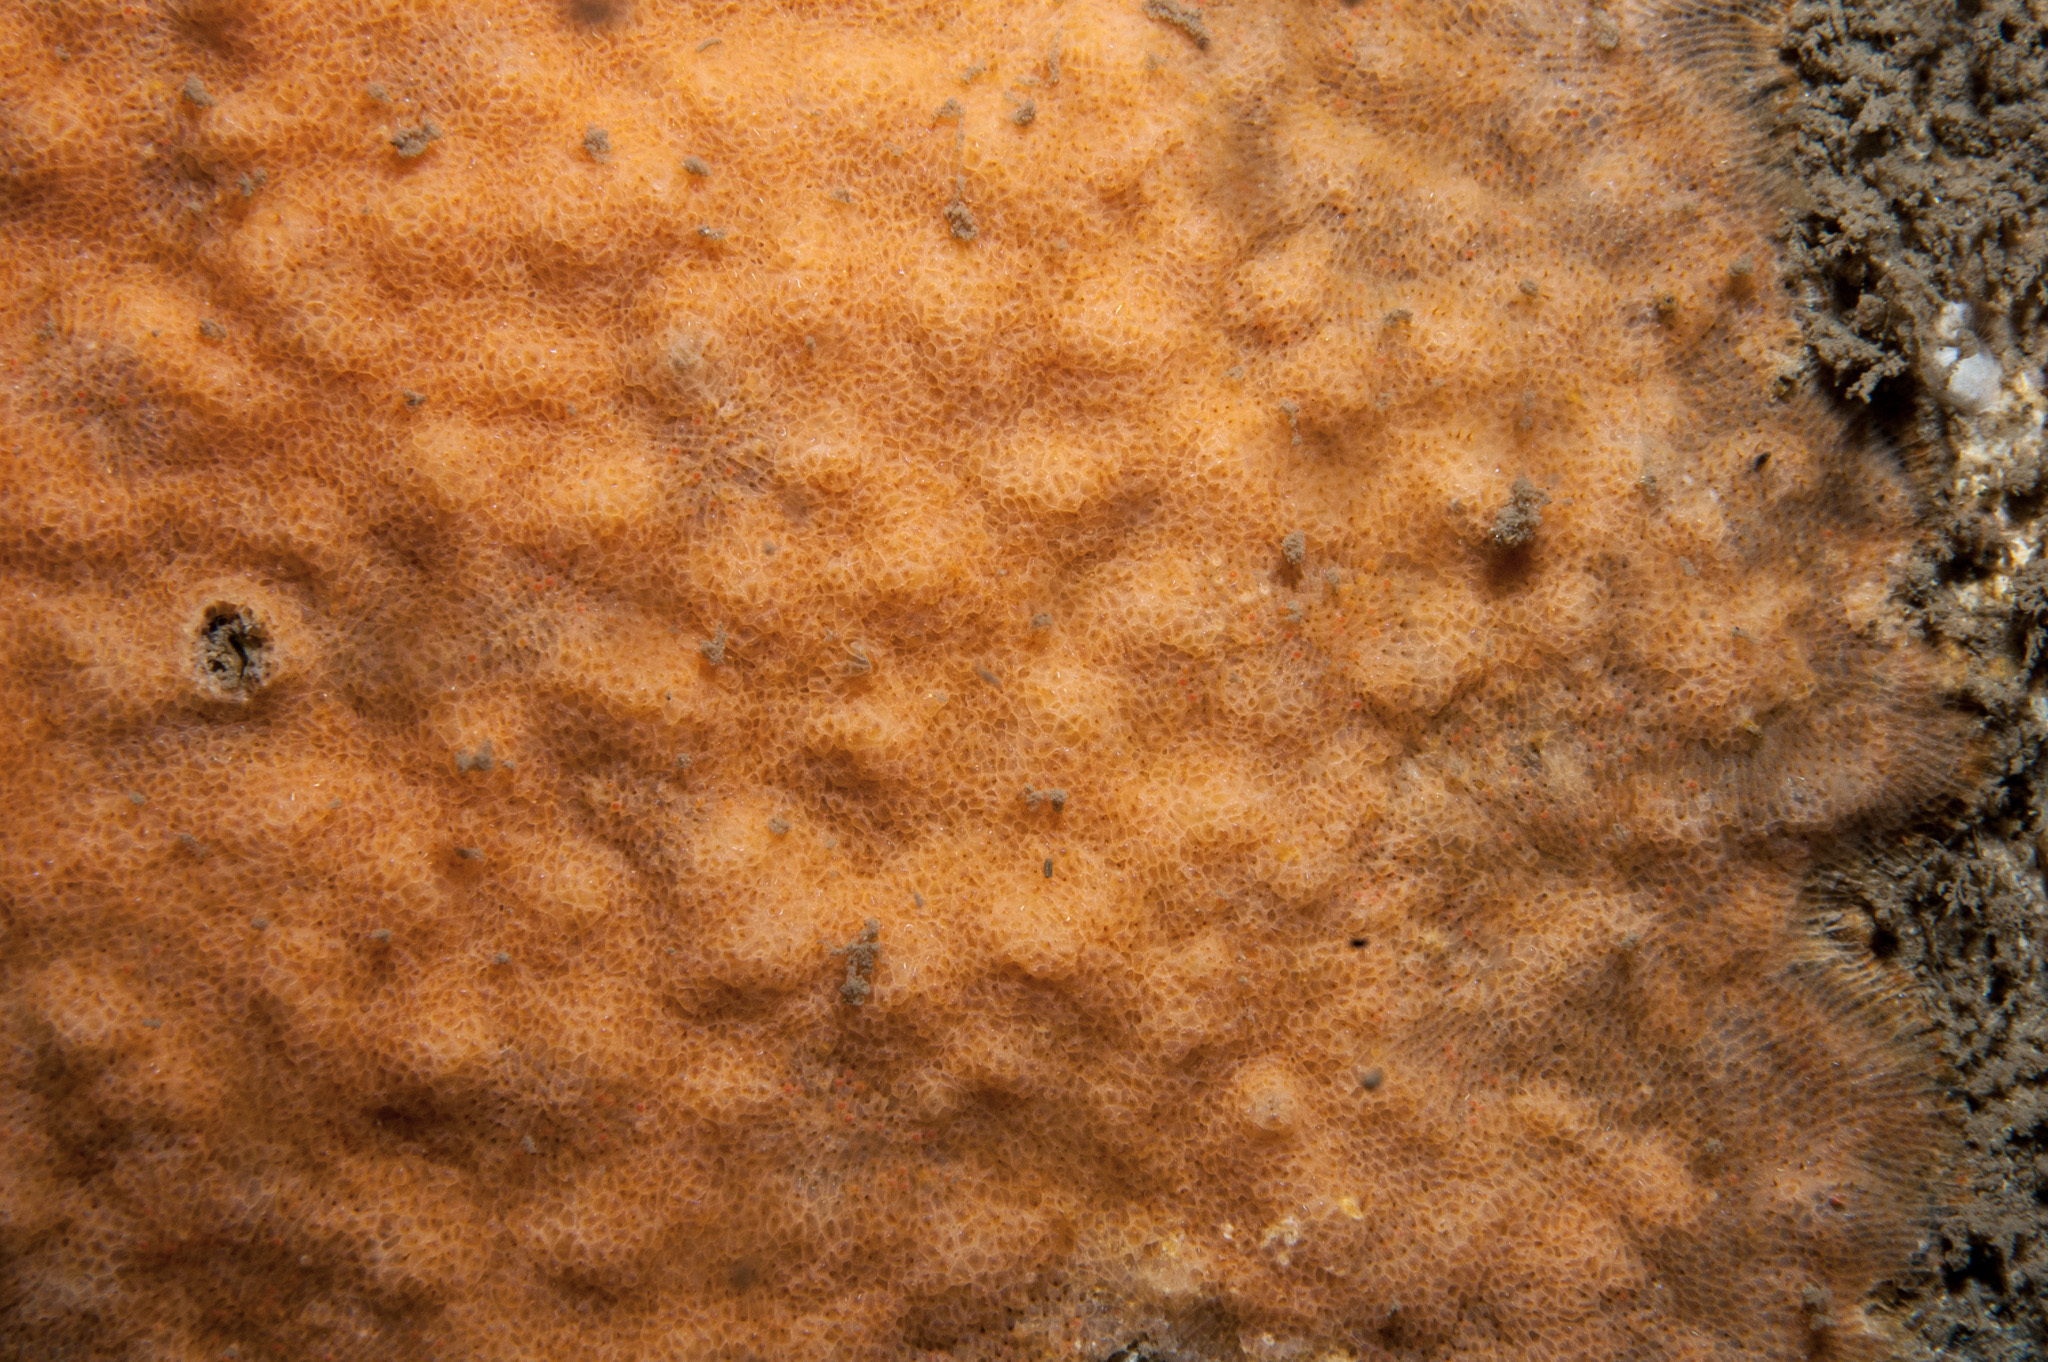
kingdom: Animalia
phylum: Bryozoa
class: Gymnolaemata
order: Cheilostomatida
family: Smittinidae
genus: Parasmittina
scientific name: Parasmittina trispinosa
